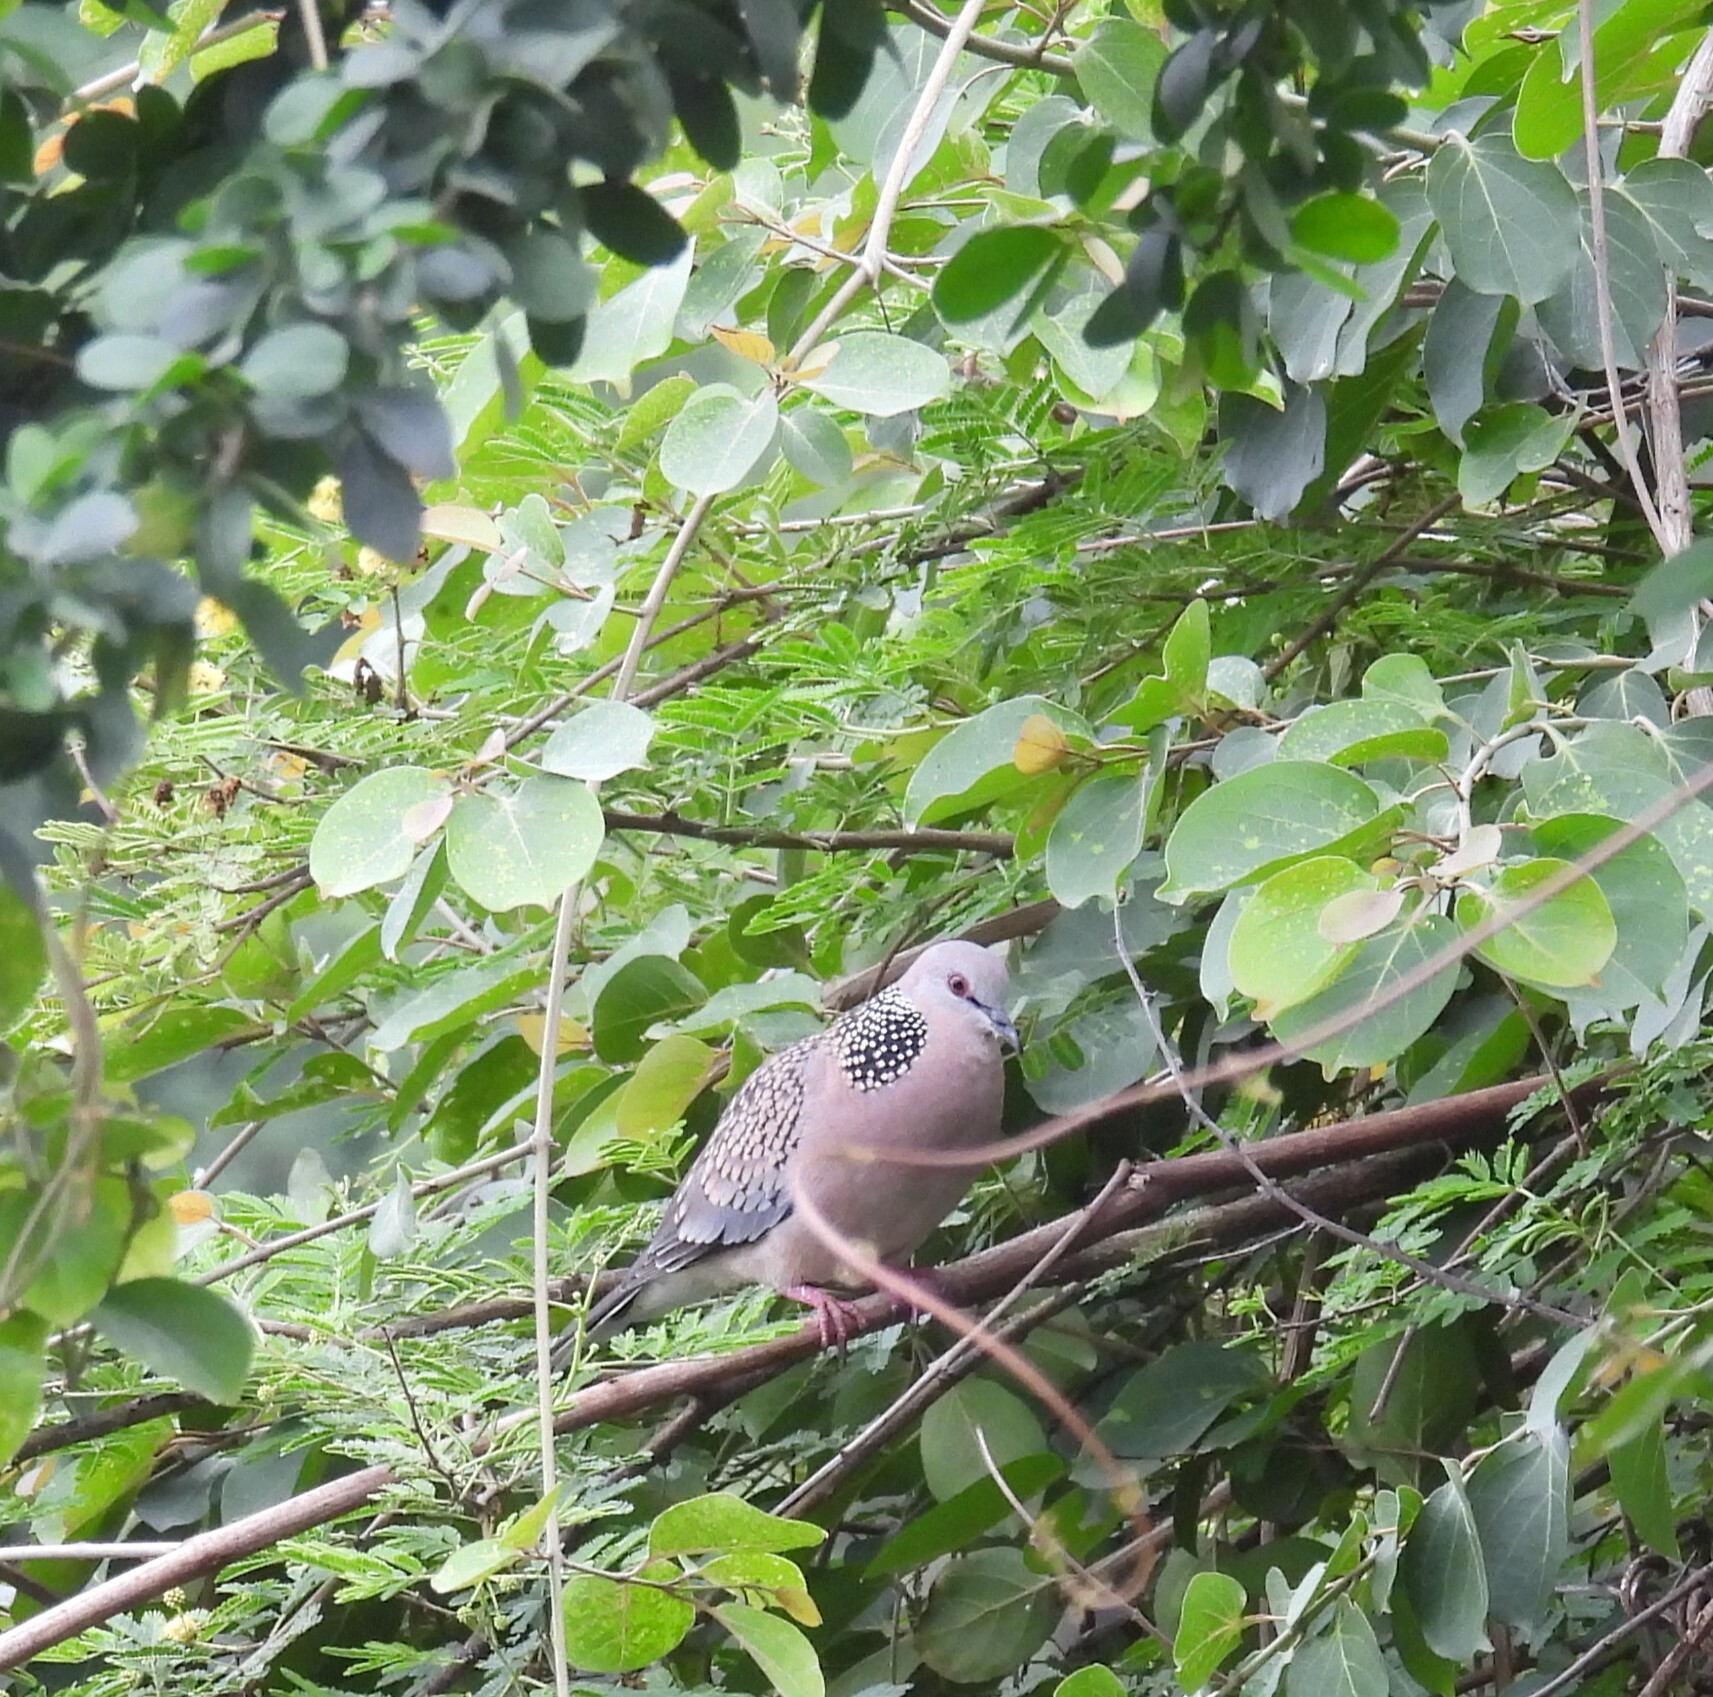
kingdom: Animalia
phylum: Chordata
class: Aves
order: Columbiformes
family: Columbidae
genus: Spilopelia
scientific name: Spilopelia chinensis
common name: Spotted dove
